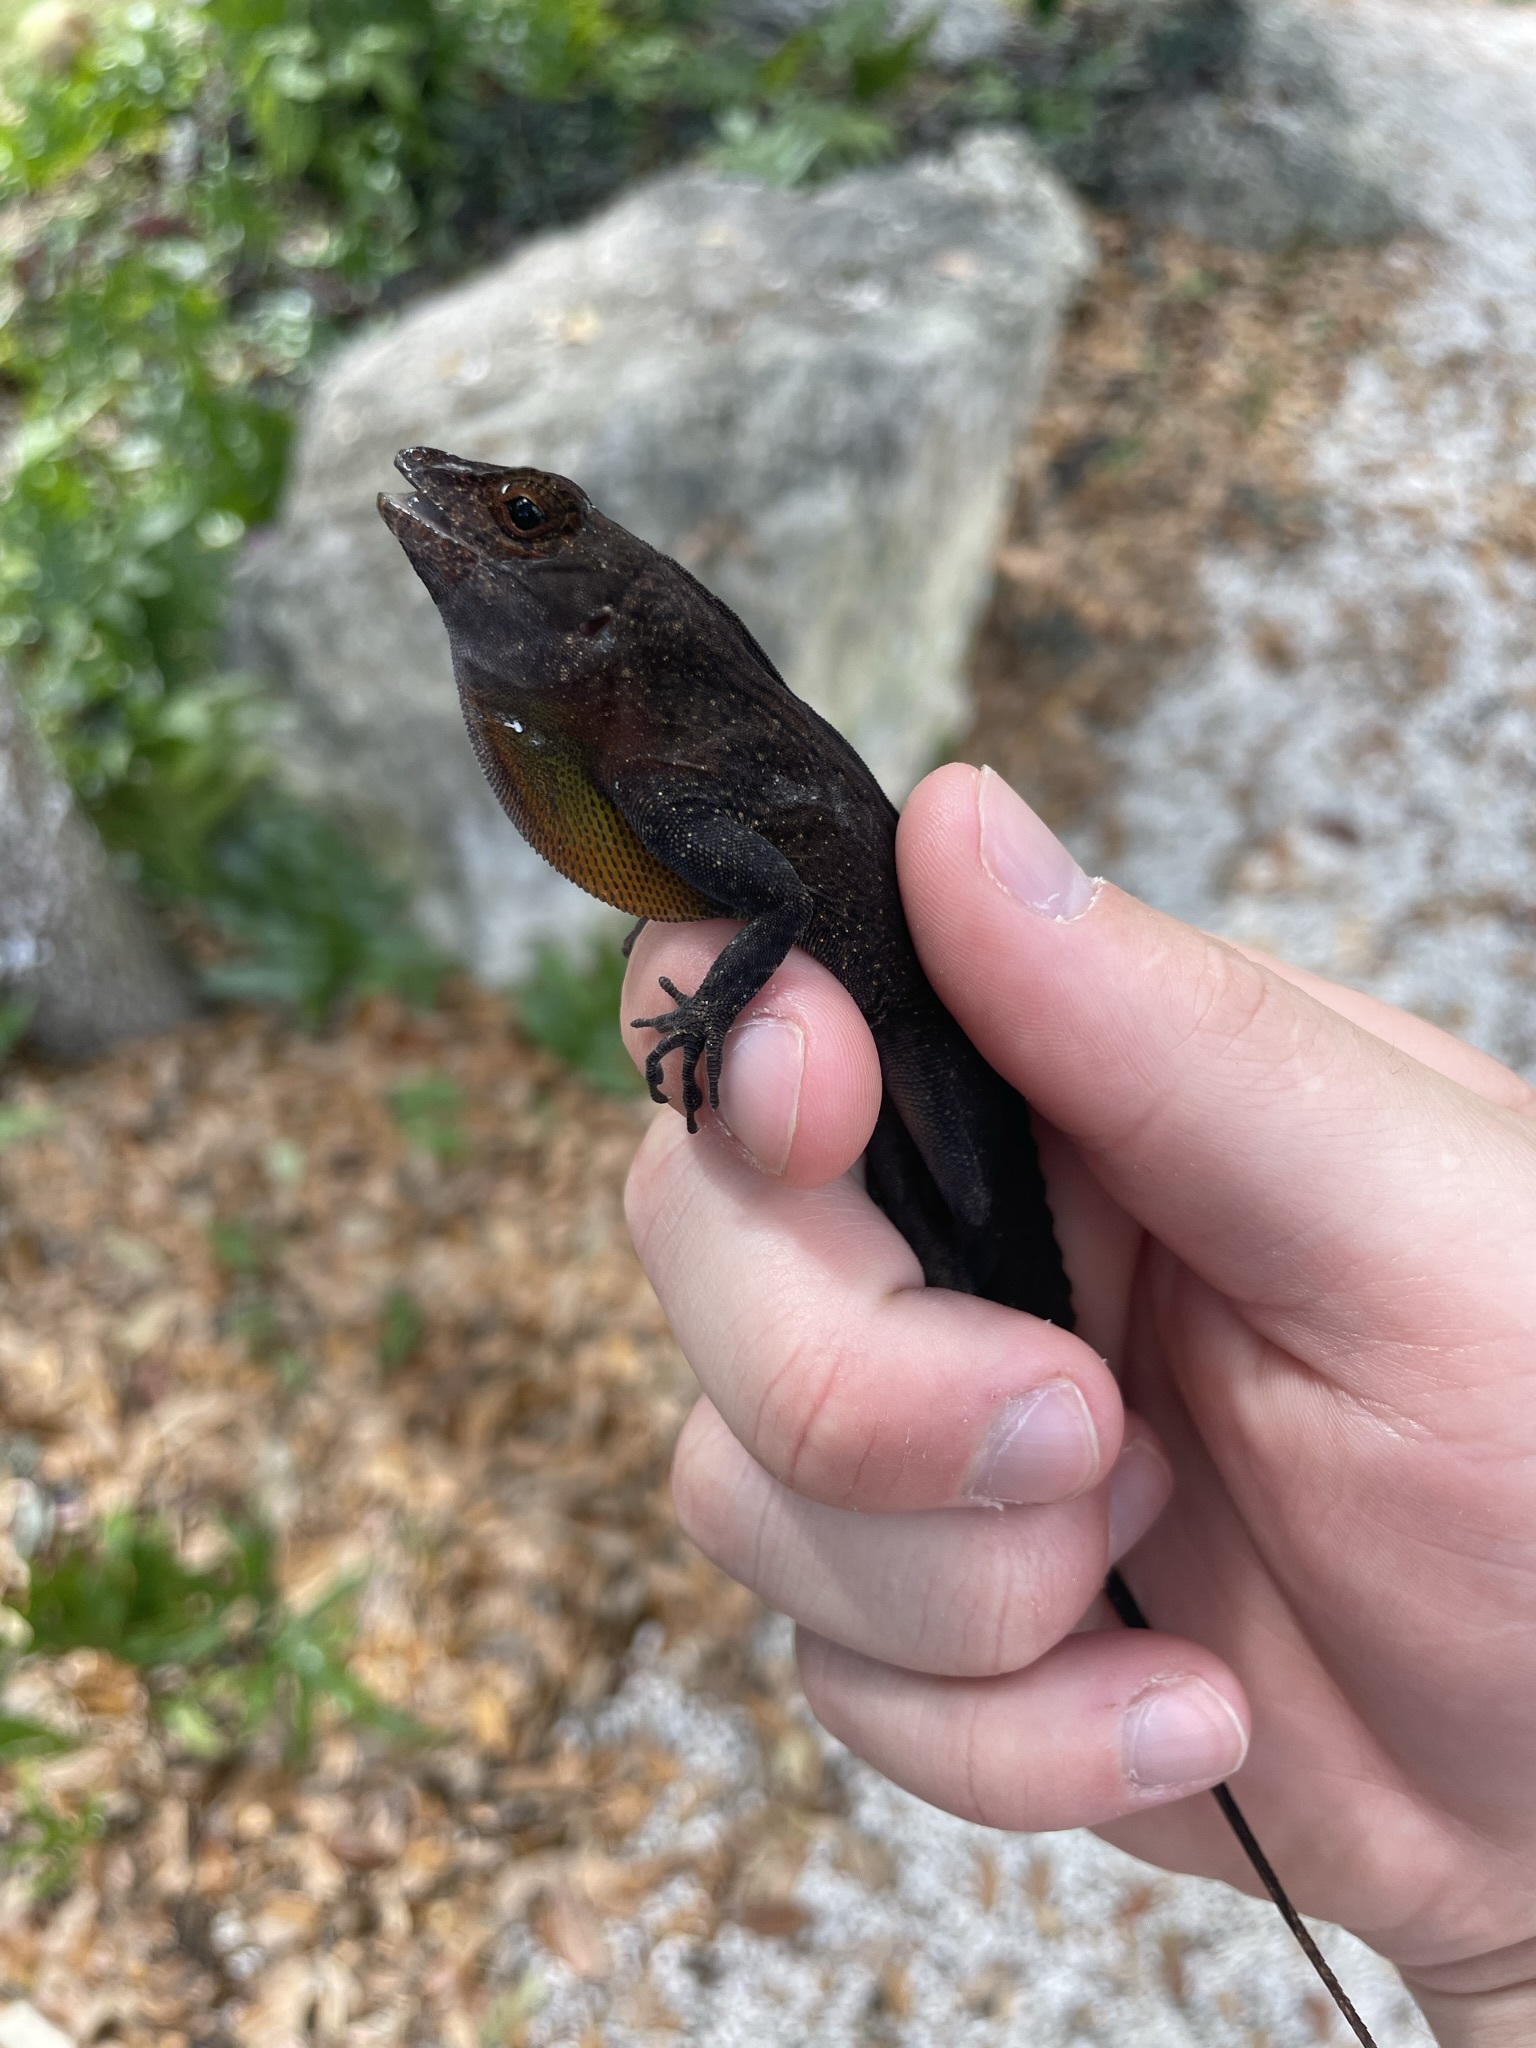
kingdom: Animalia
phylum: Chordata
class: Squamata
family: Dactyloidae
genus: Anolis
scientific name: Anolis cristatellus
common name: Crested anole
